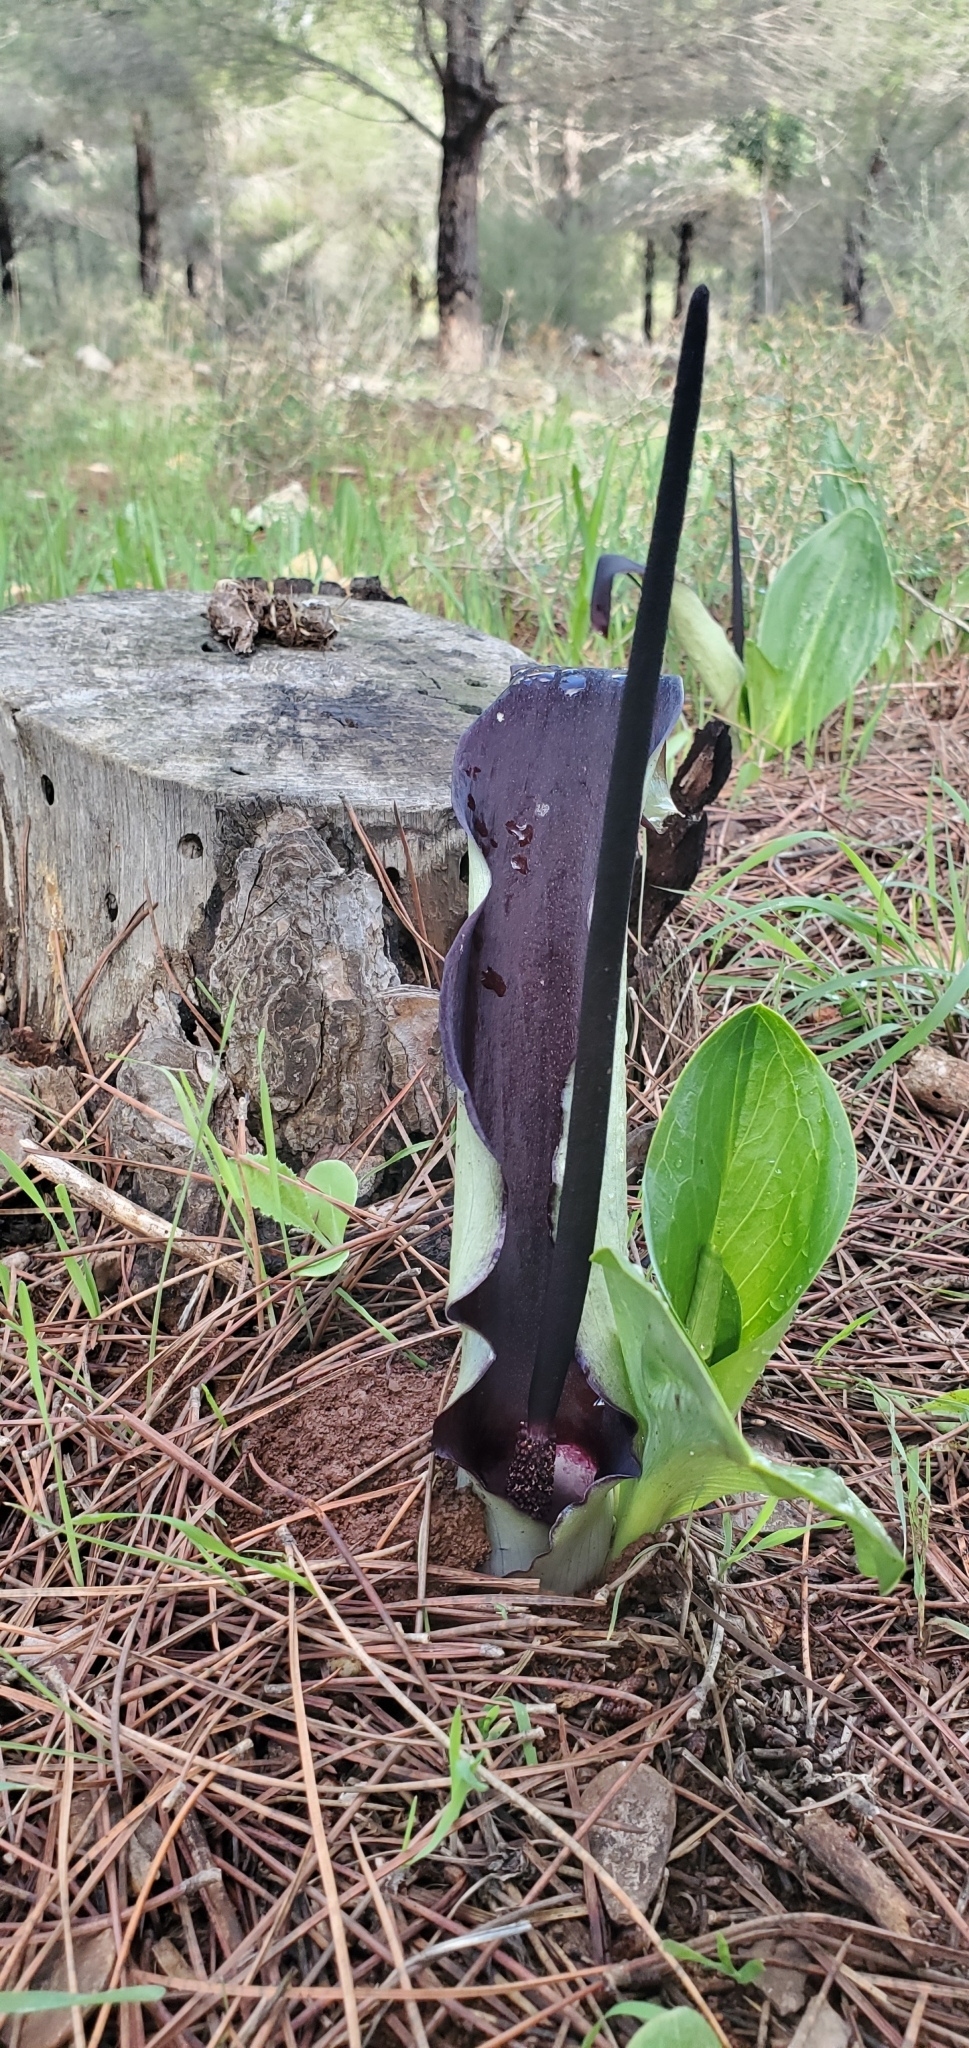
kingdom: Plantae
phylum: Tracheophyta
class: Liliopsida
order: Alismatales
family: Araceae
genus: Arum
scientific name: Arum palaestinum
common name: Solomon's lily
